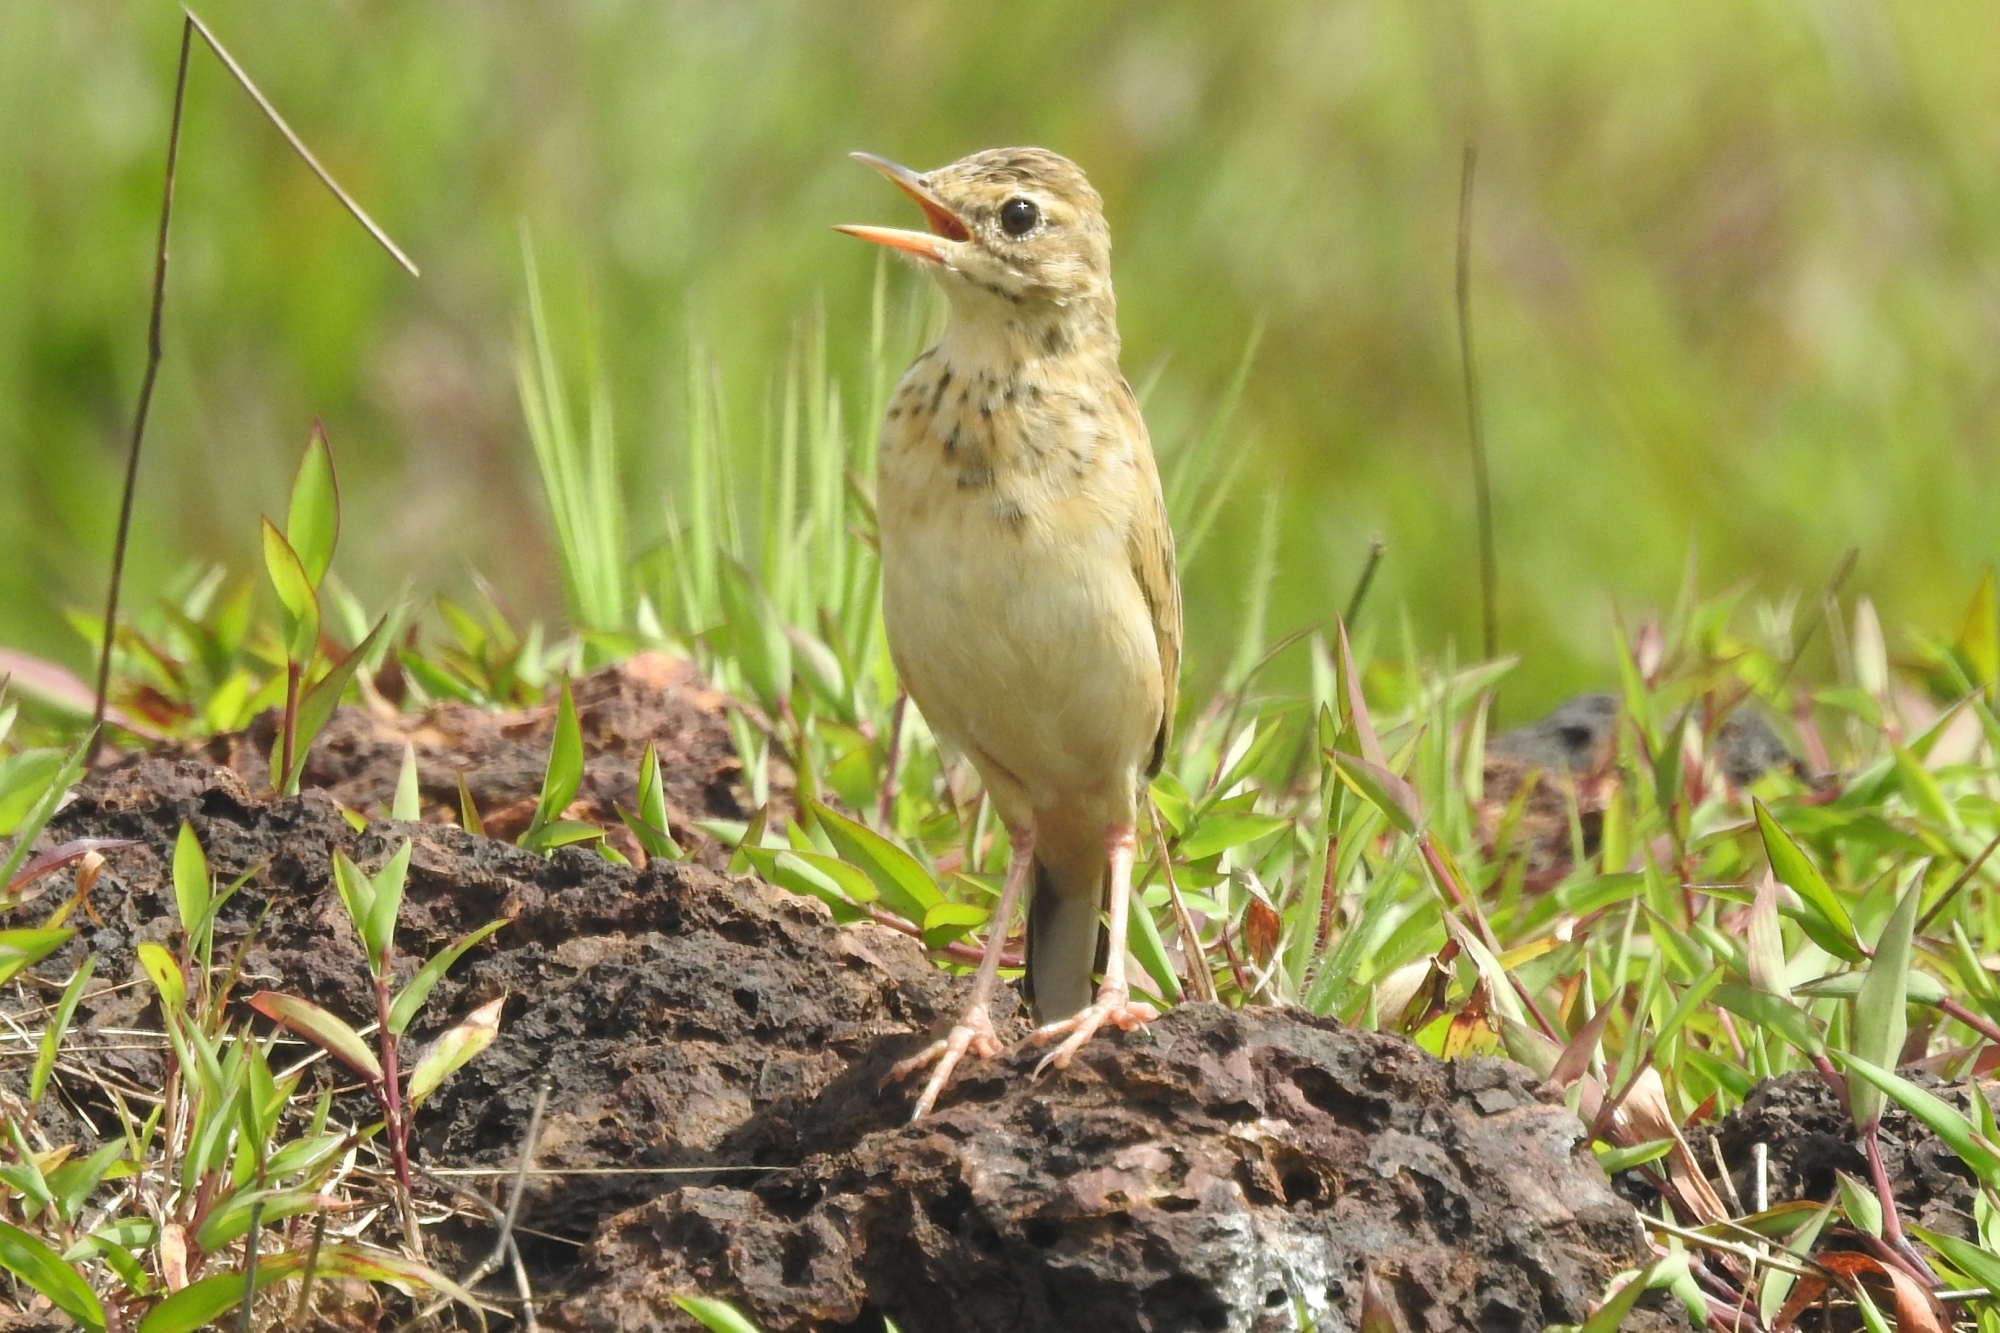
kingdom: Animalia
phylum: Chordata
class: Aves
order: Passeriformes
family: Motacillidae
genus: Anthus
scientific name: Anthus rufulus
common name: Paddyfield pipit
